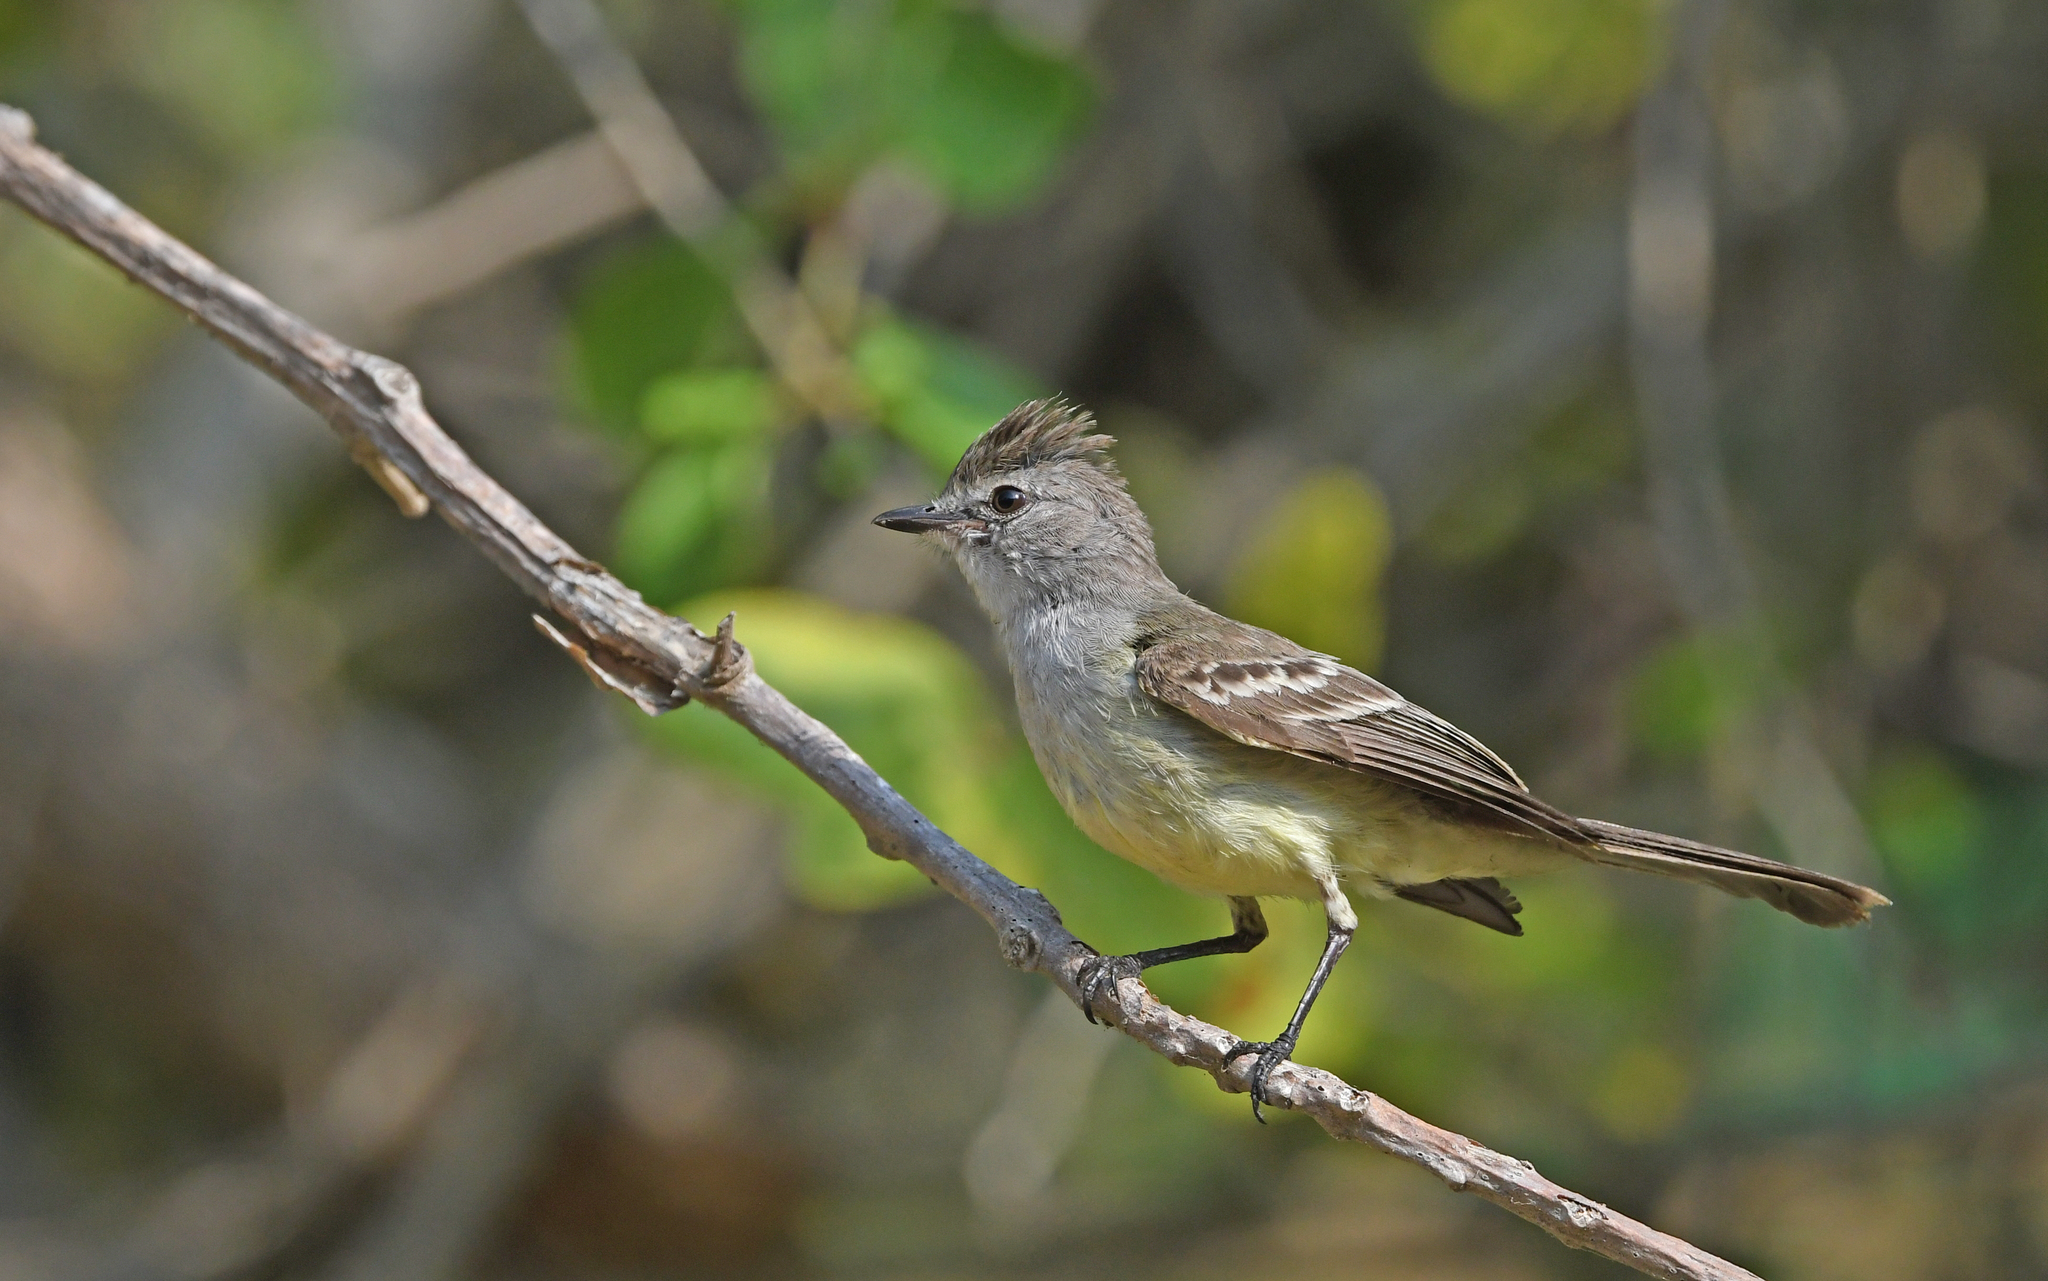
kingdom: Animalia
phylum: Chordata
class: Aves
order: Passeriformes
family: Tyrannidae
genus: Sublegatus
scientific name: Sublegatus arenarum
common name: Northern scrub-flycatcher
